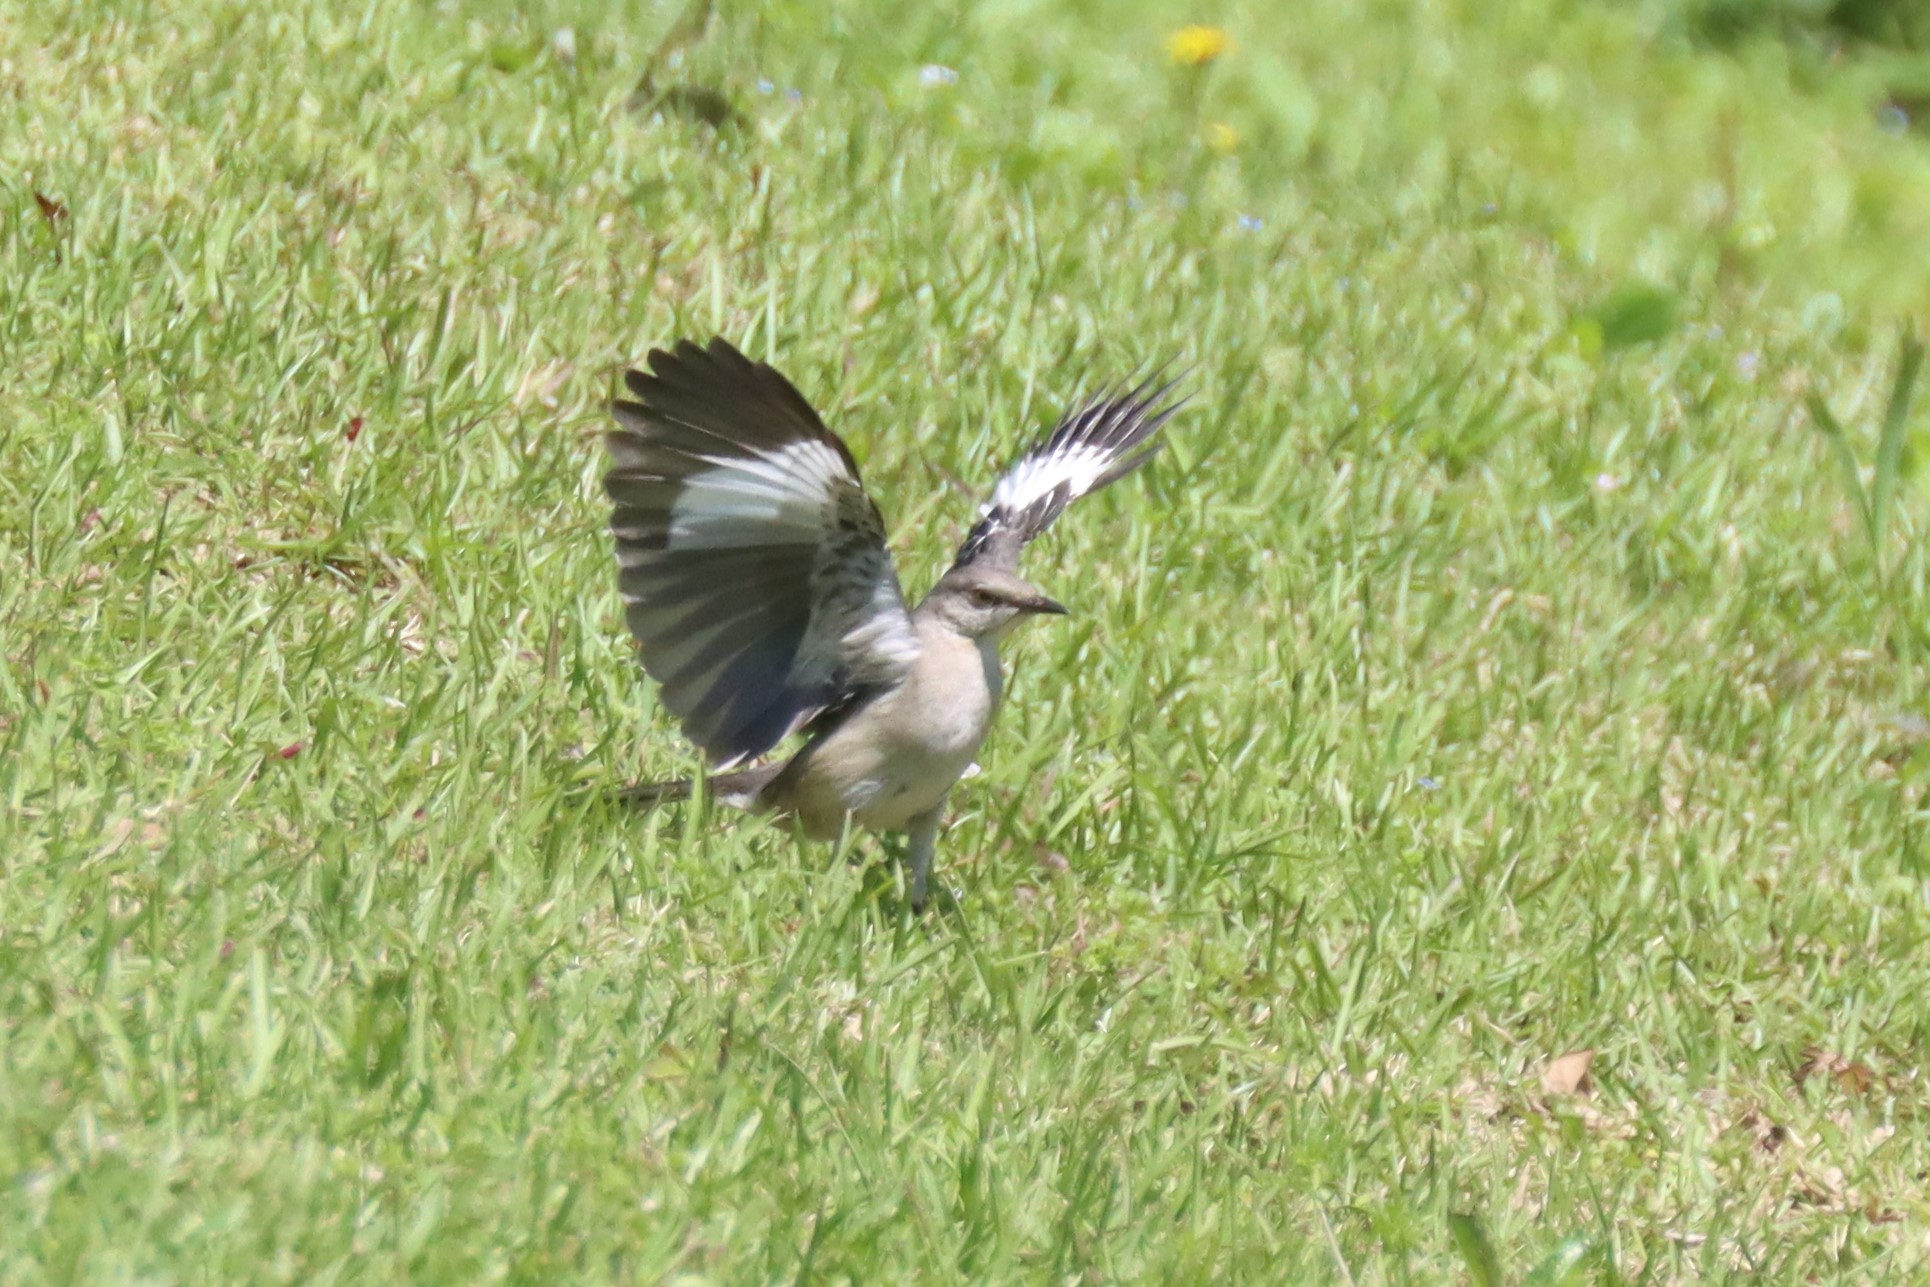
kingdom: Animalia
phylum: Chordata
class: Aves
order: Passeriformes
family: Mimidae
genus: Mimus
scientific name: Mimus polyglottos
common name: Northern mockingbird
